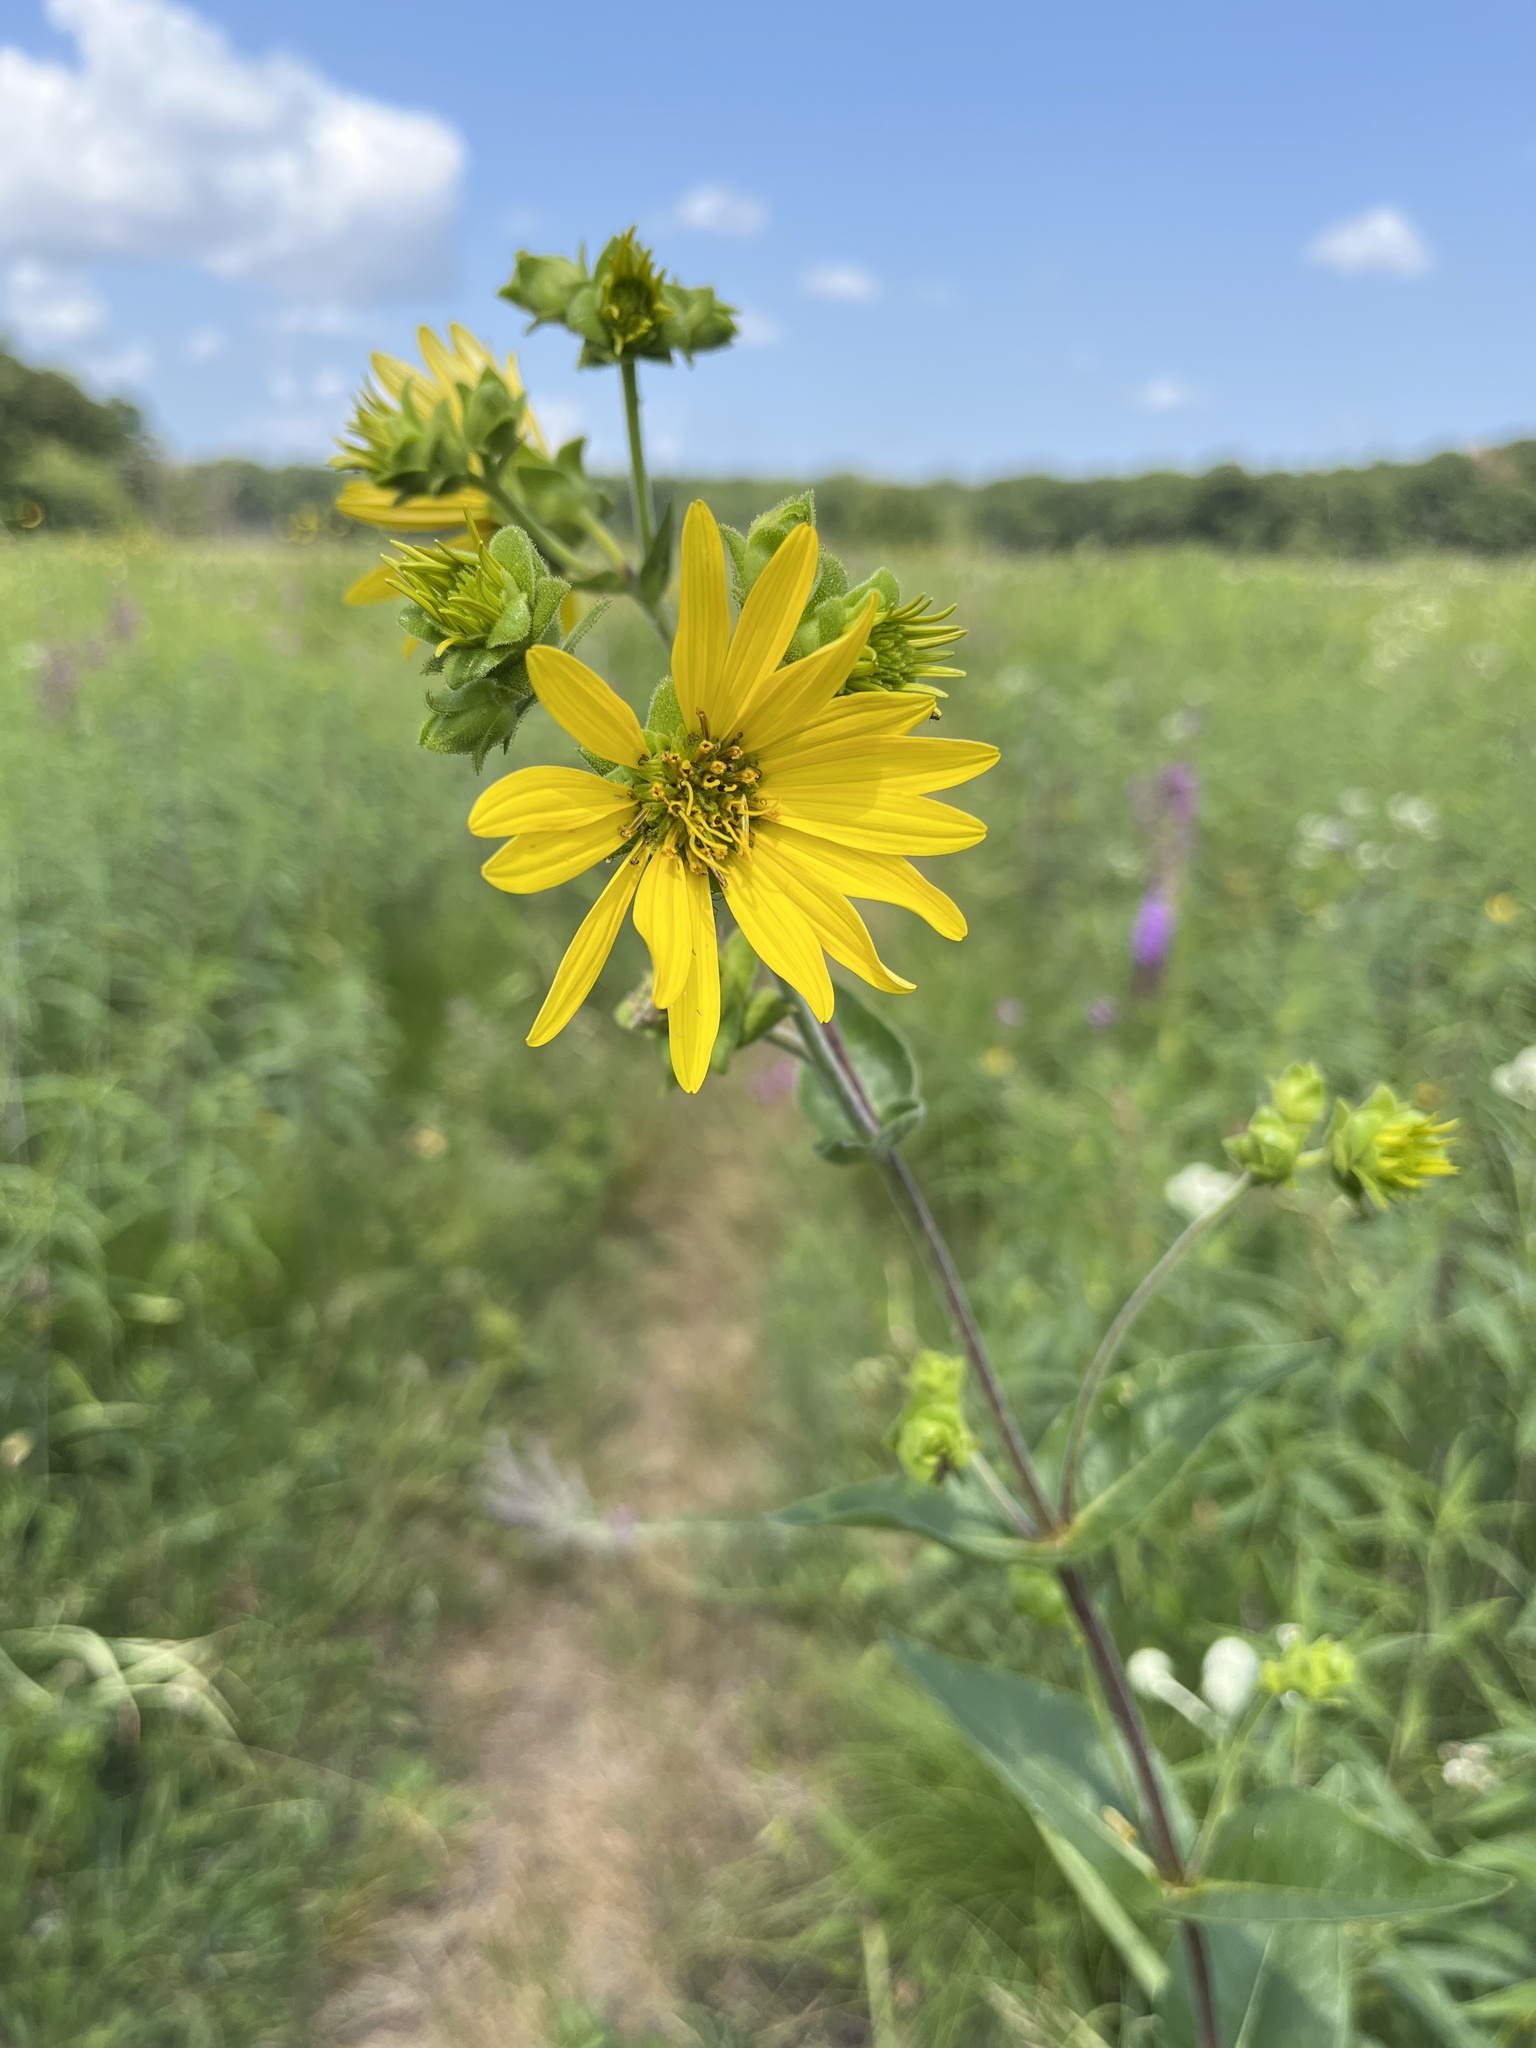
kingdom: Plantae
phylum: Tracheophyta
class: Magnoliopsida
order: Asterales
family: Asteraceae
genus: Silphium
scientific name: Silphium integrifolium
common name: Whole-leaf rosinweed
